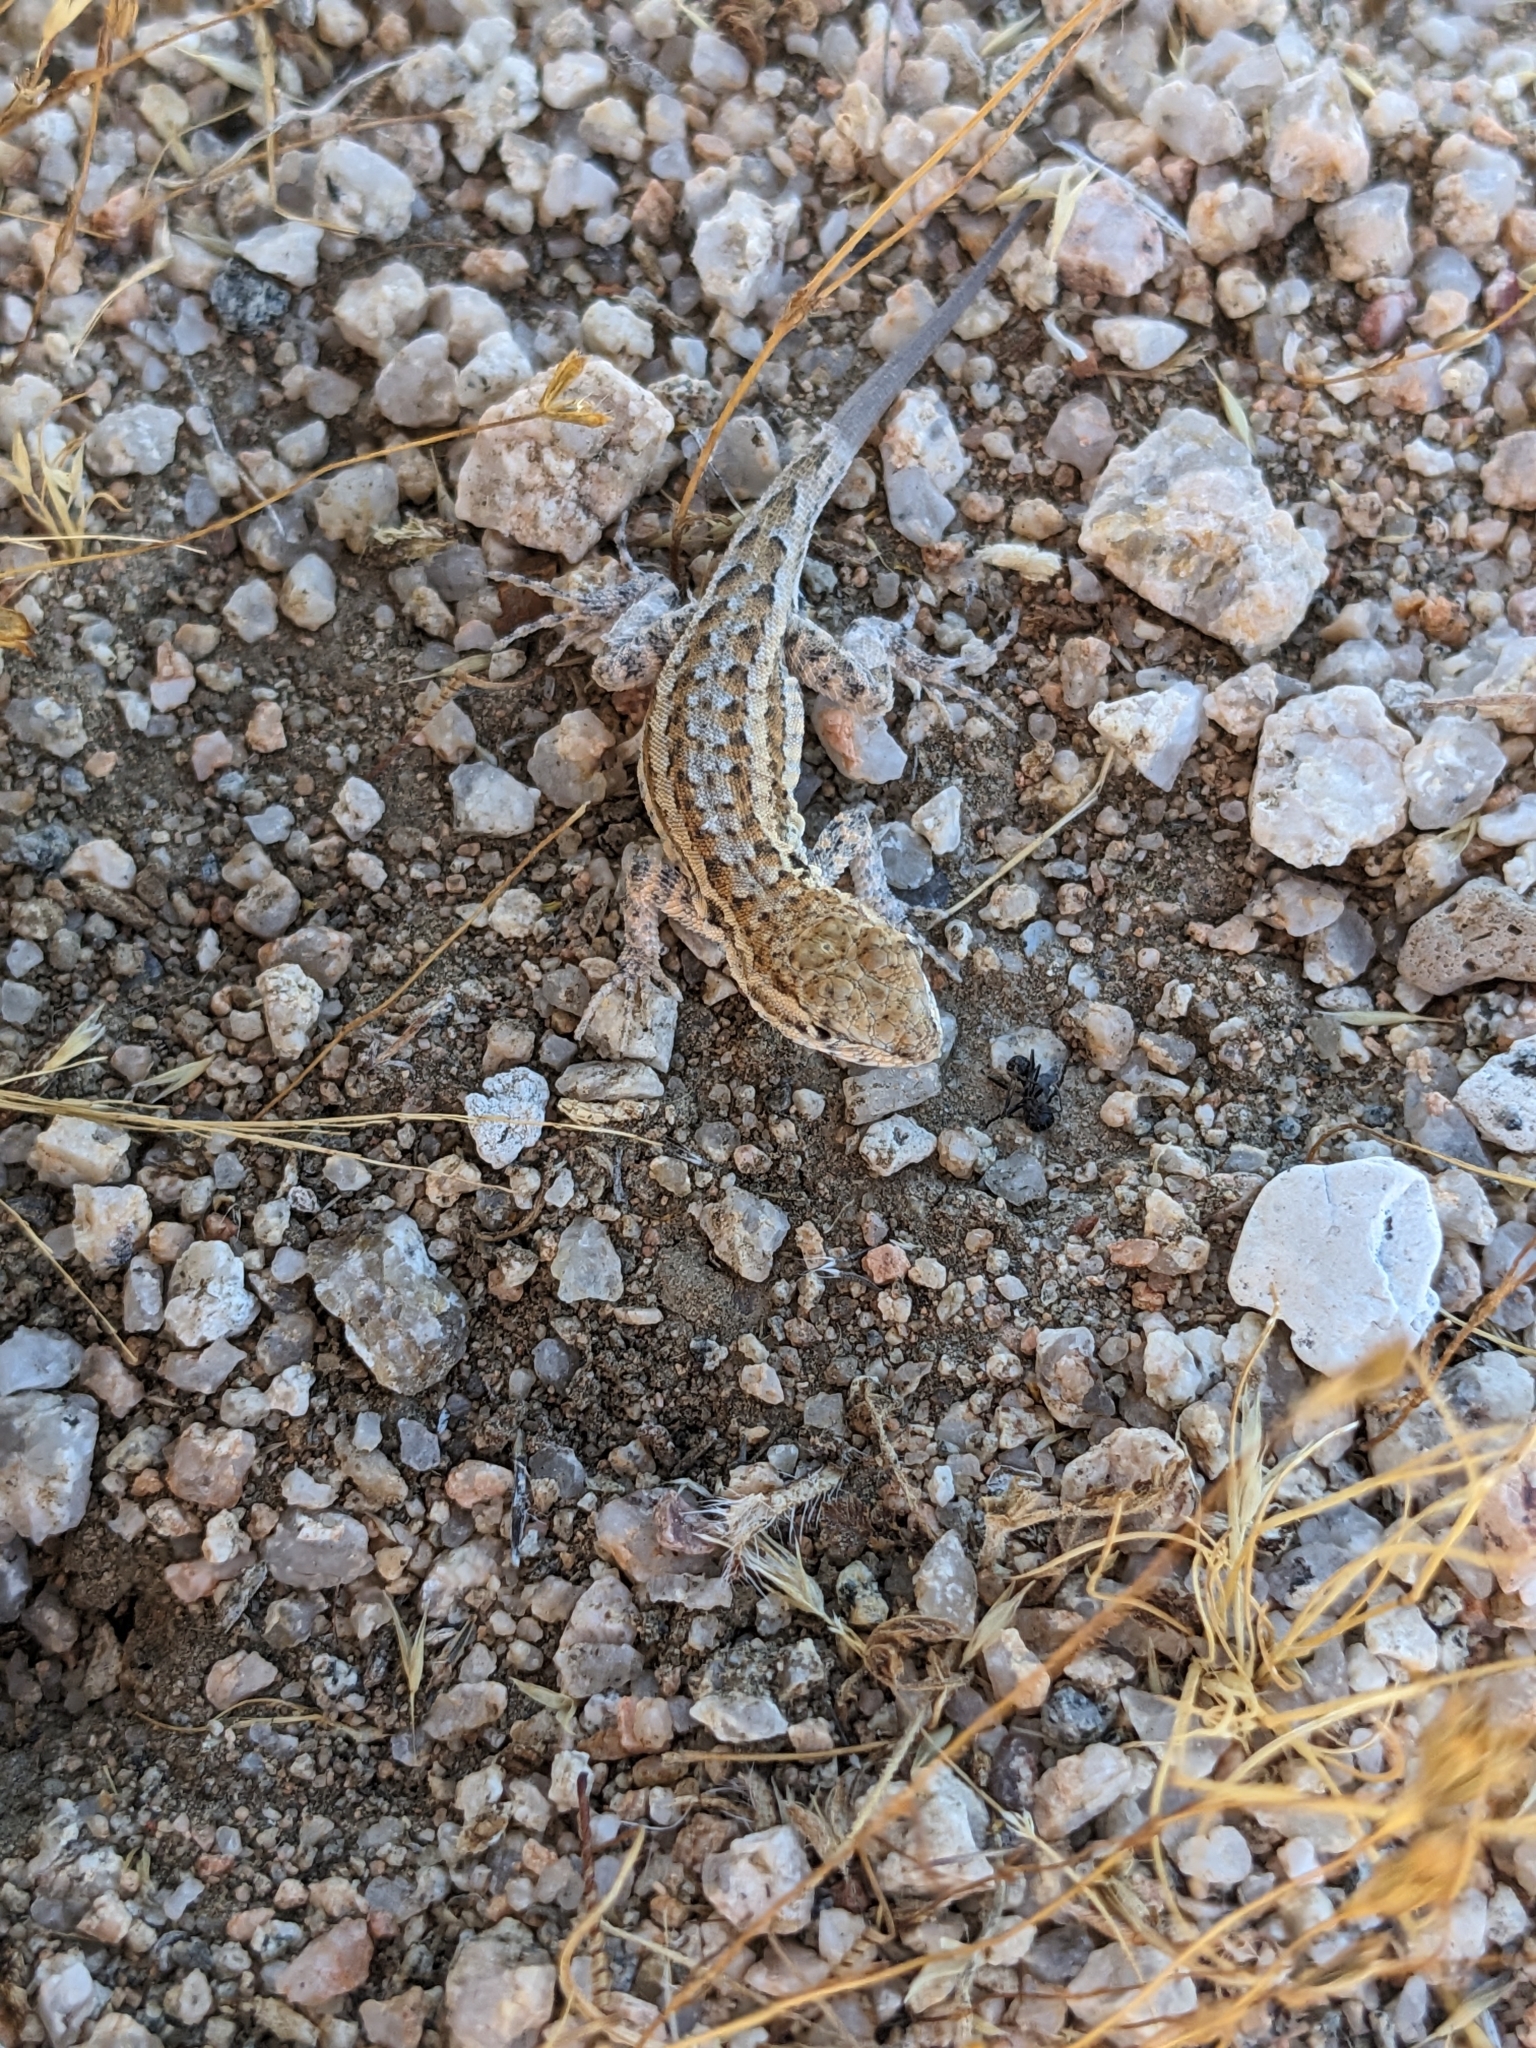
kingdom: Animalia
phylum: Chordata
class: Squamata
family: Phrynosomatidae
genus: Uta
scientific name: Uta stansburiana
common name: Side-blotched lizard
